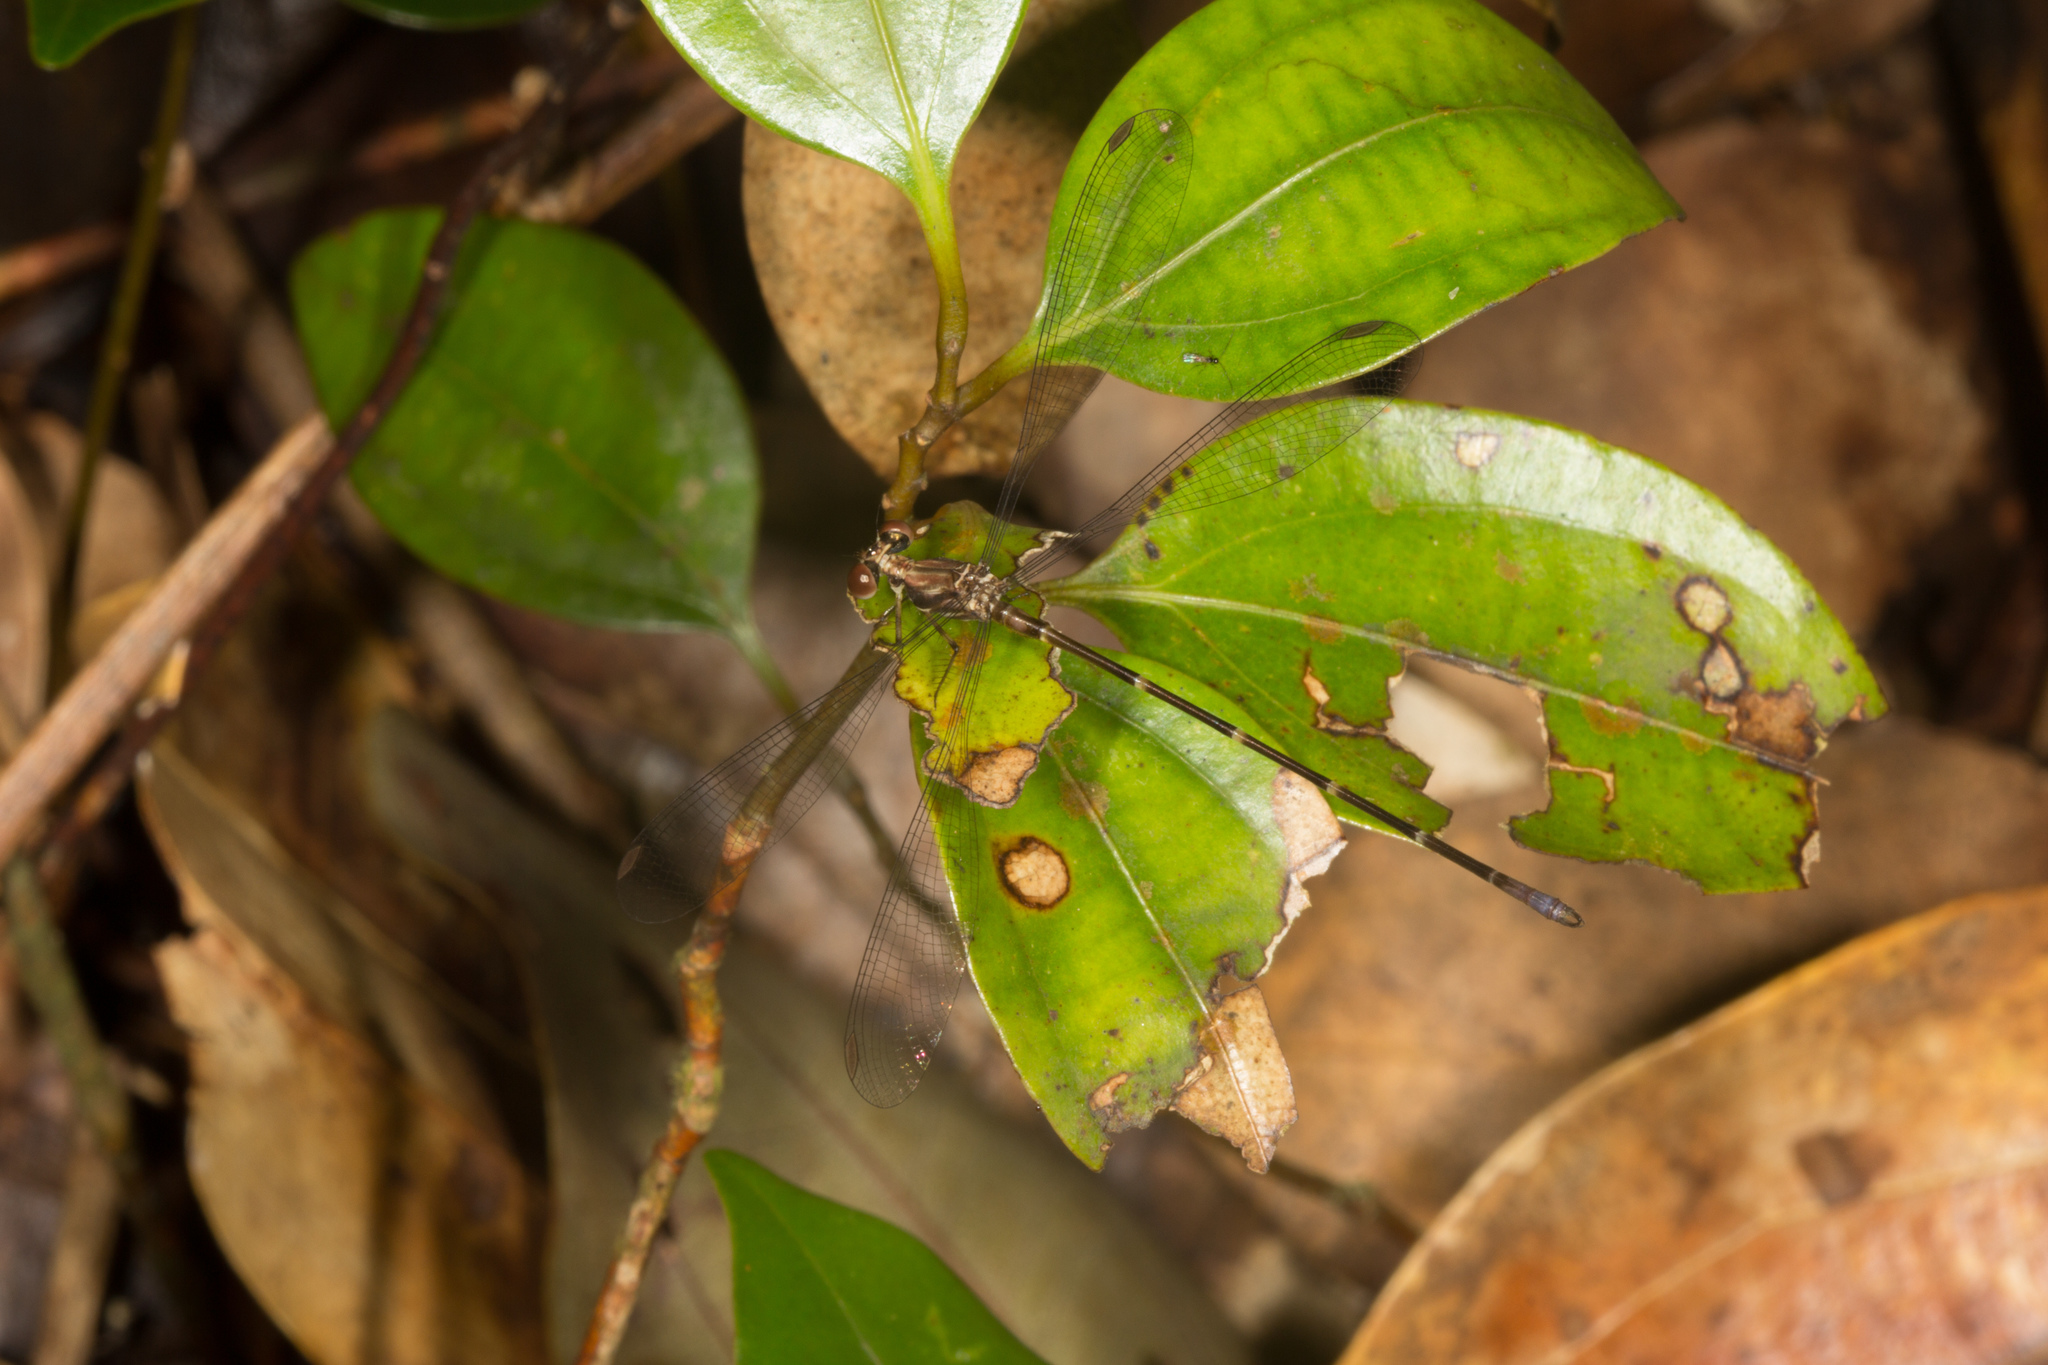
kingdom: Animalia
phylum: Arthropoda
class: Insecta
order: Odonata
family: Argiolestidae
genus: Allolestes
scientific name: Allolestes maclachlanii
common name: Seychelles islander
